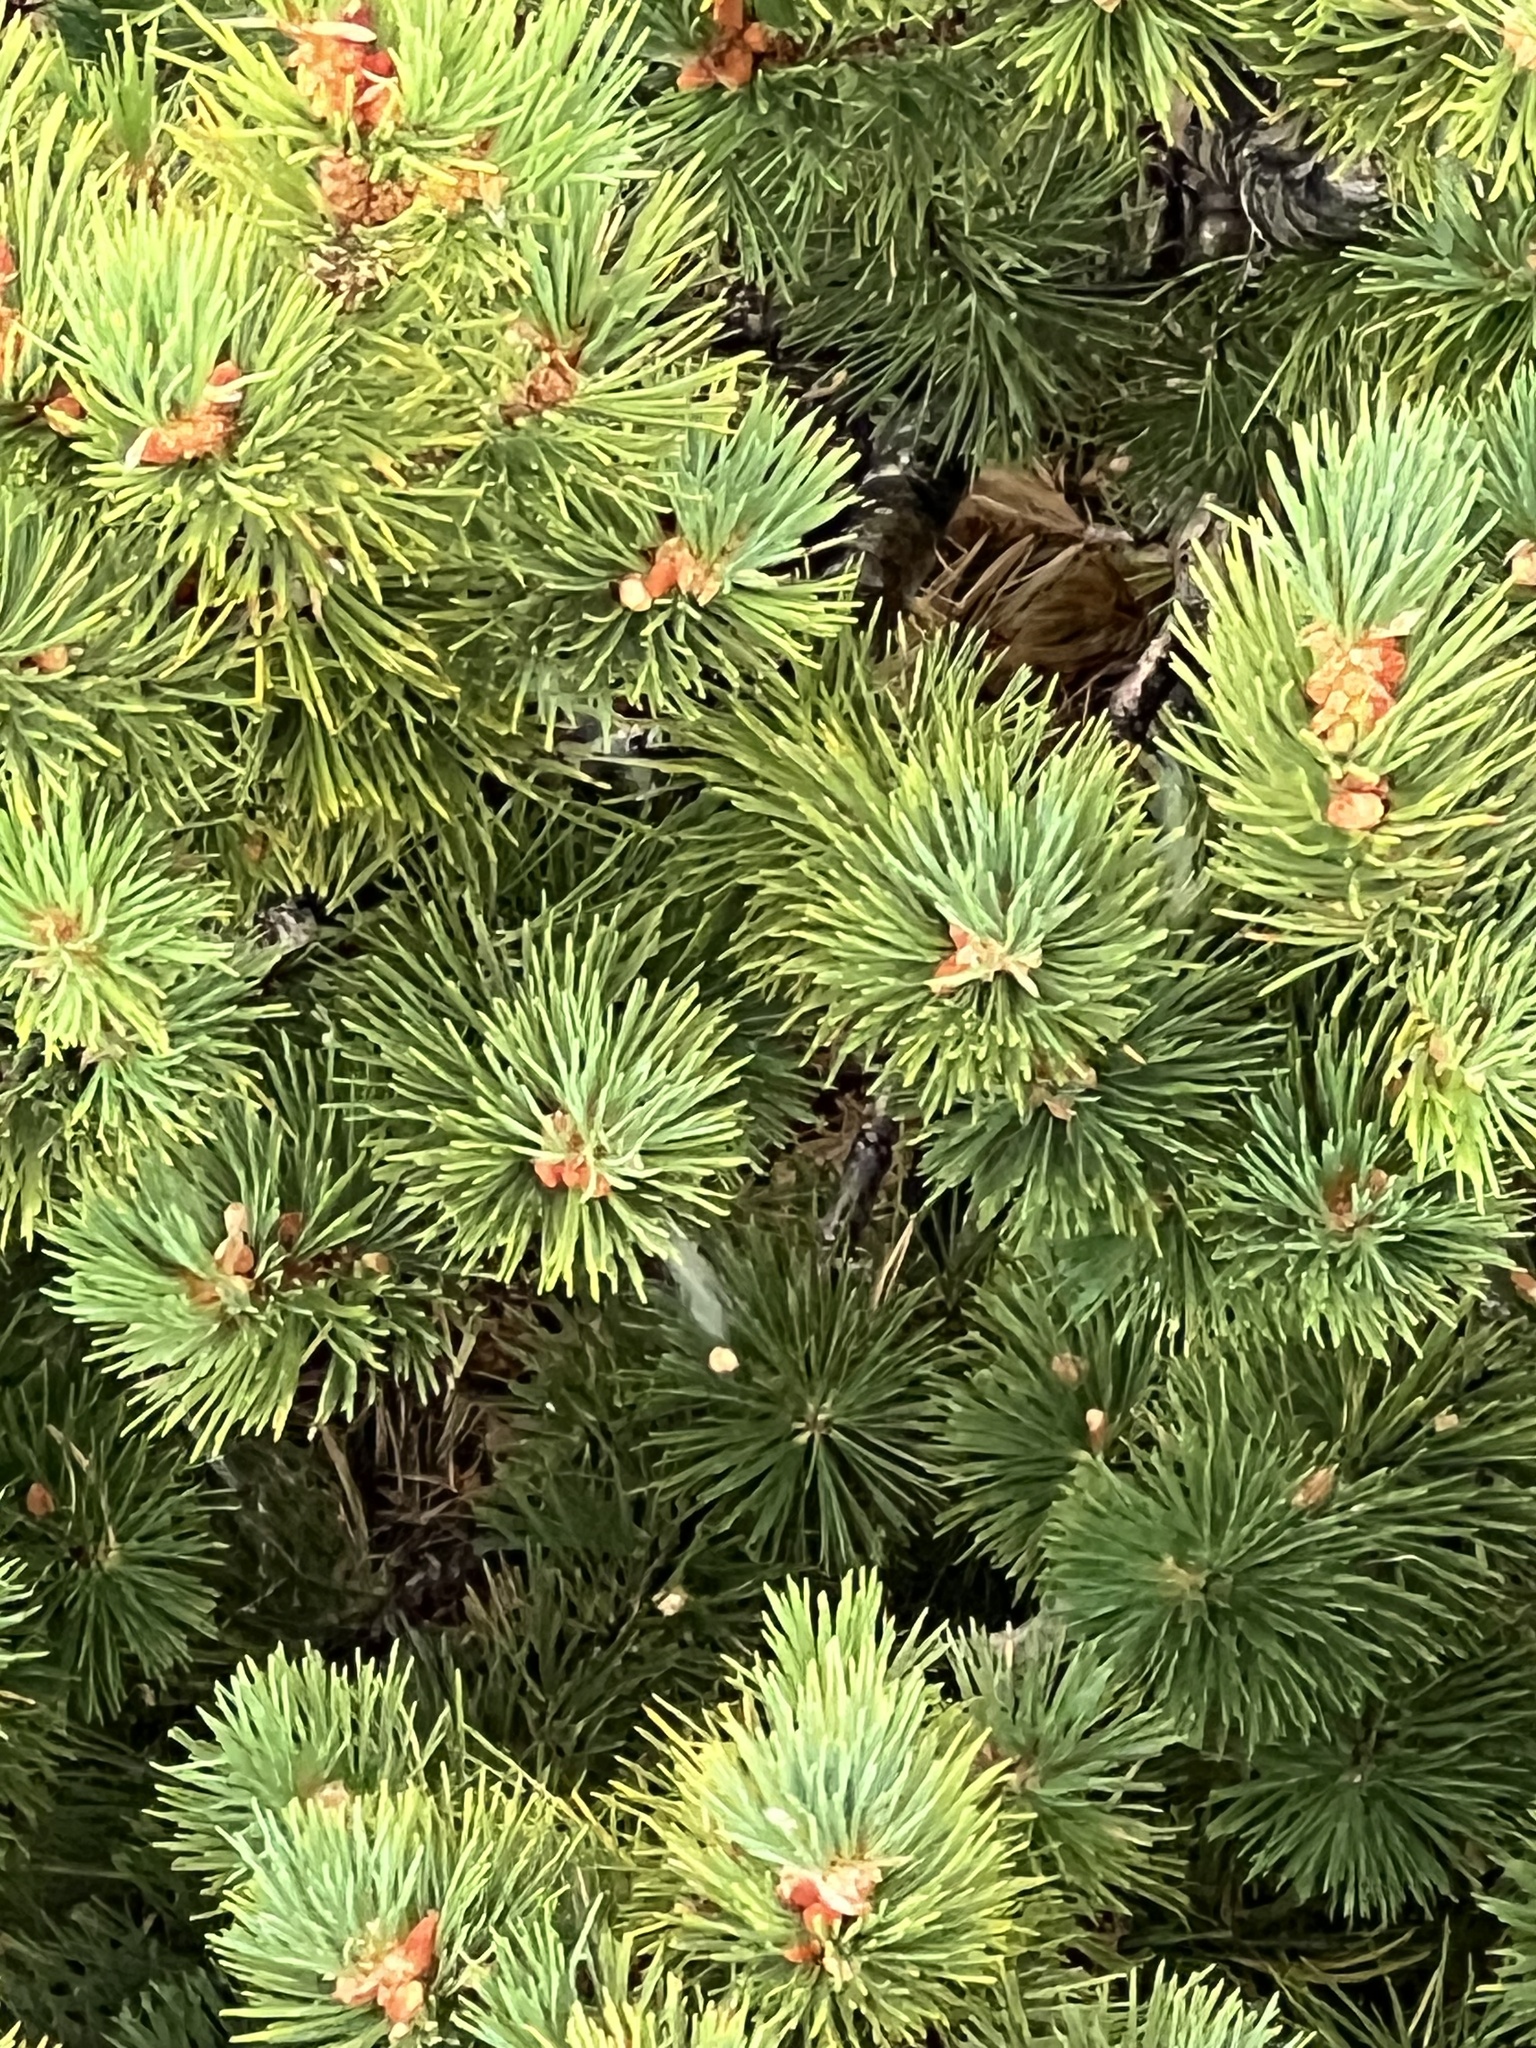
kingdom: Plantae
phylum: Tracheophyta
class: Pinopsida
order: Pinales
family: Pinaceae
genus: Pinus
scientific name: Pinus flexilis
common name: Limber pine
